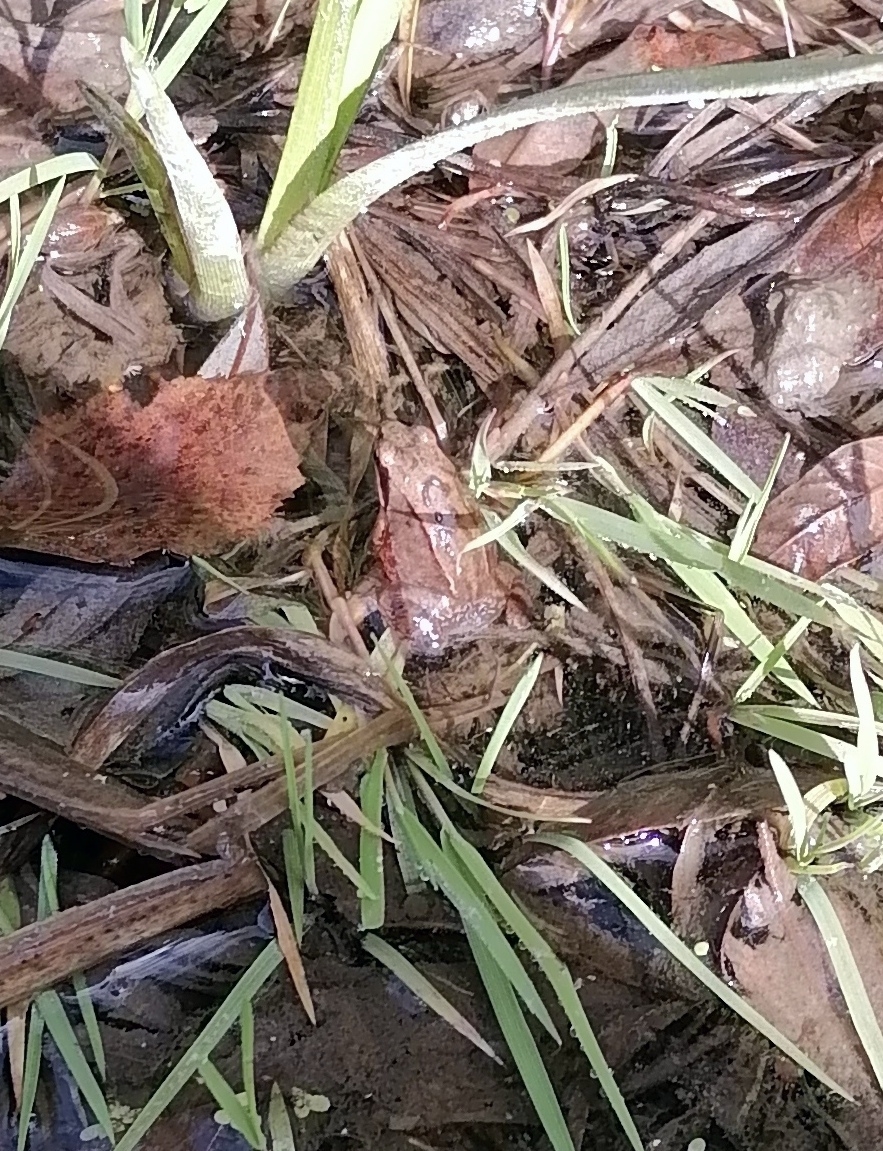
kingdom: Animalia
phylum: Chordata
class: Amphibia
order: Anura
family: Ranidae
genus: Rana
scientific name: Rana arvalis
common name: Moor frog
